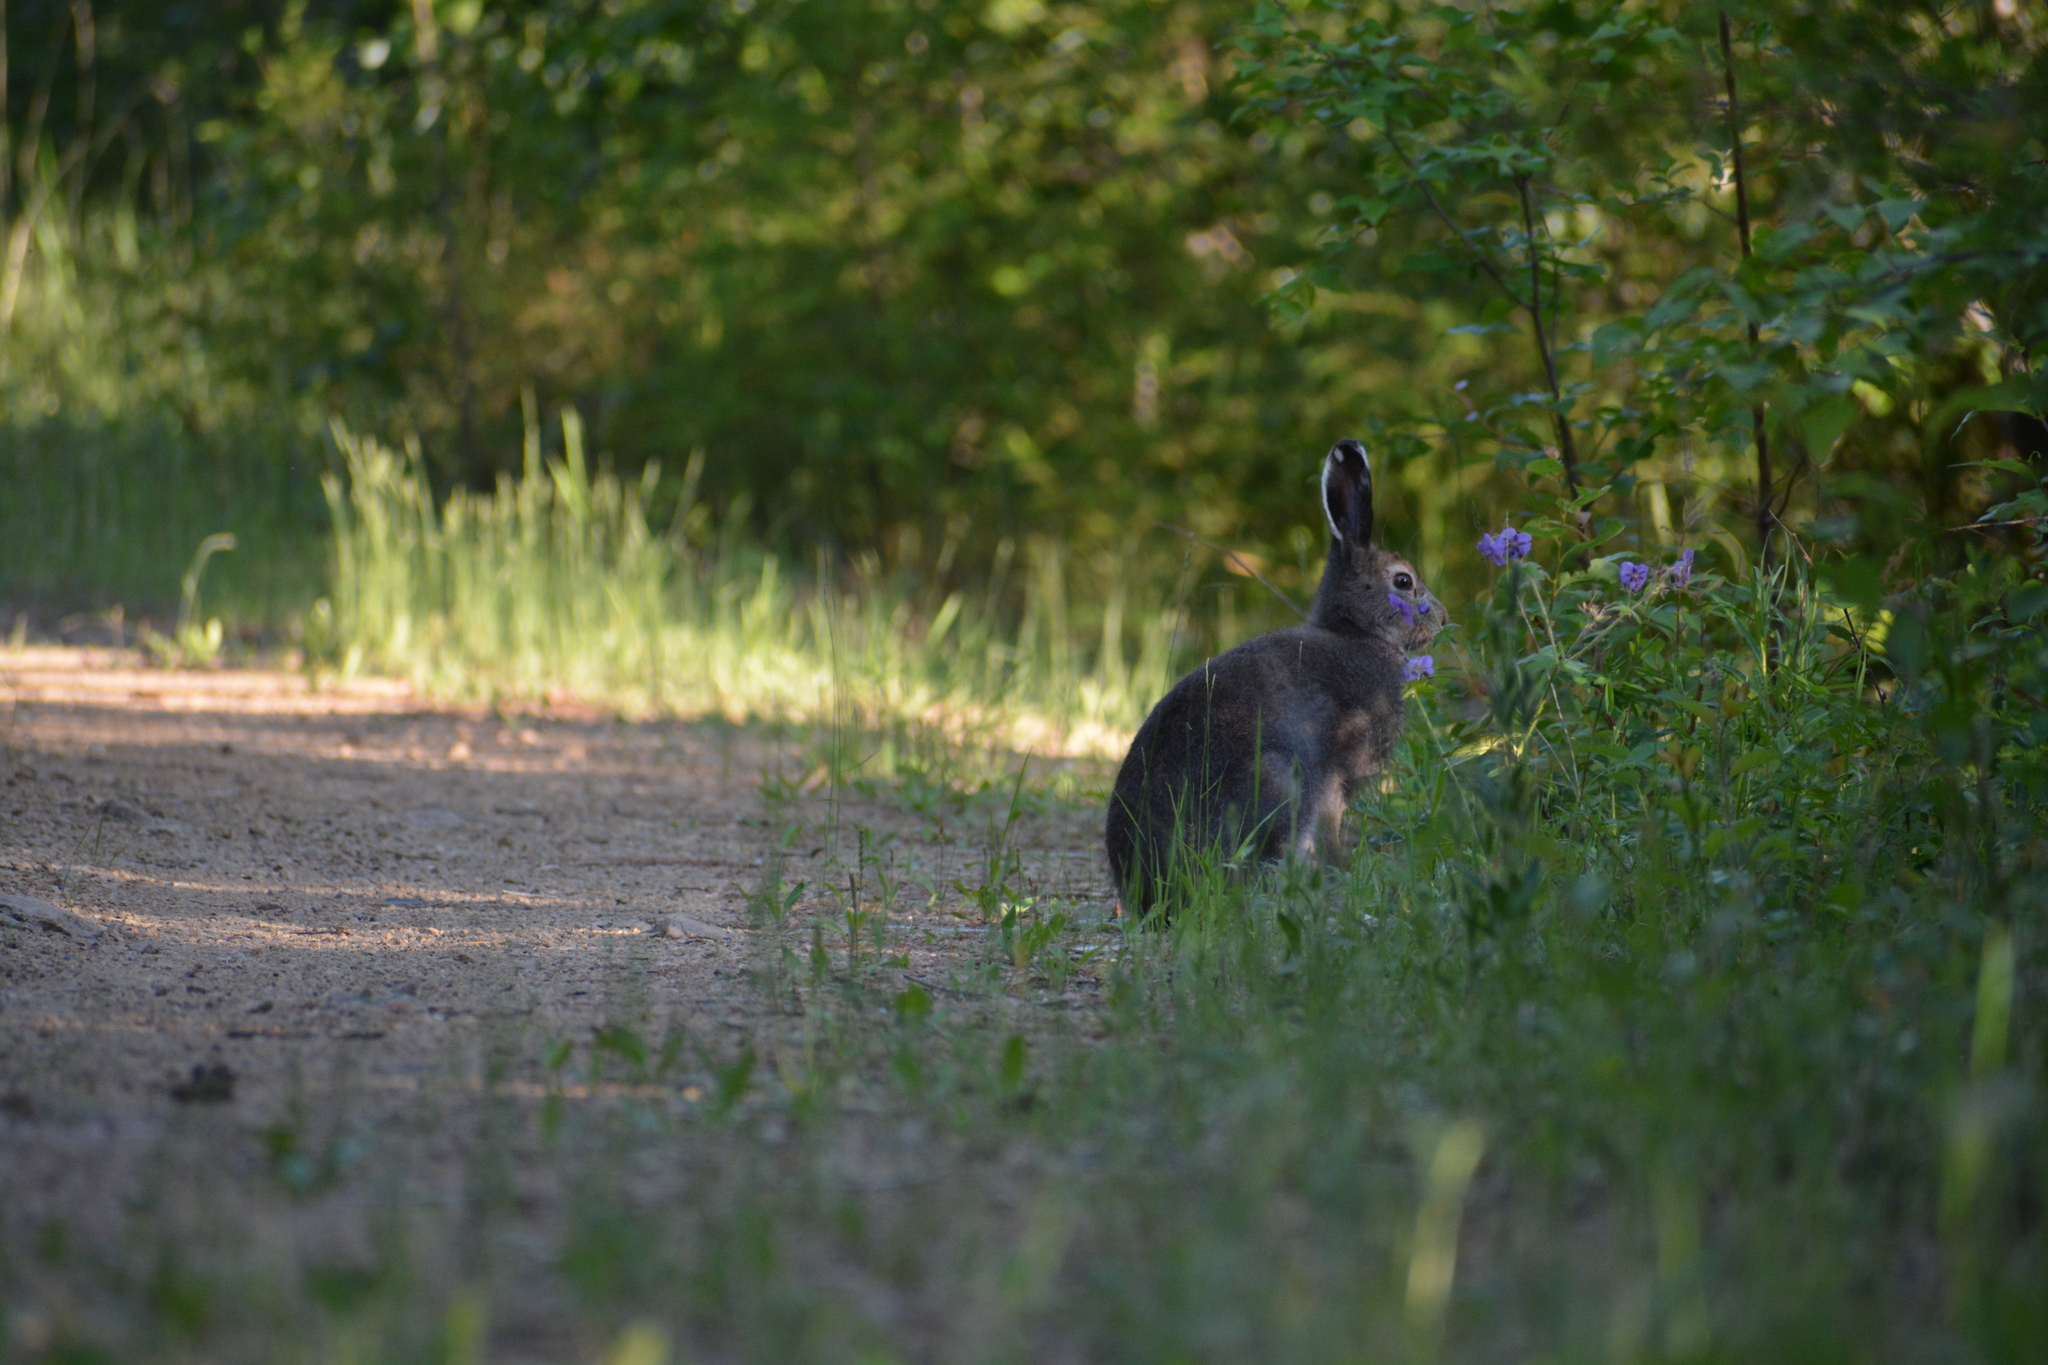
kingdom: Animalia
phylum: Chordata
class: Mammalia
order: Lagomorpha
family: Leporidae
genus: Lepus
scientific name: Lepus timidus
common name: Mountain hare
